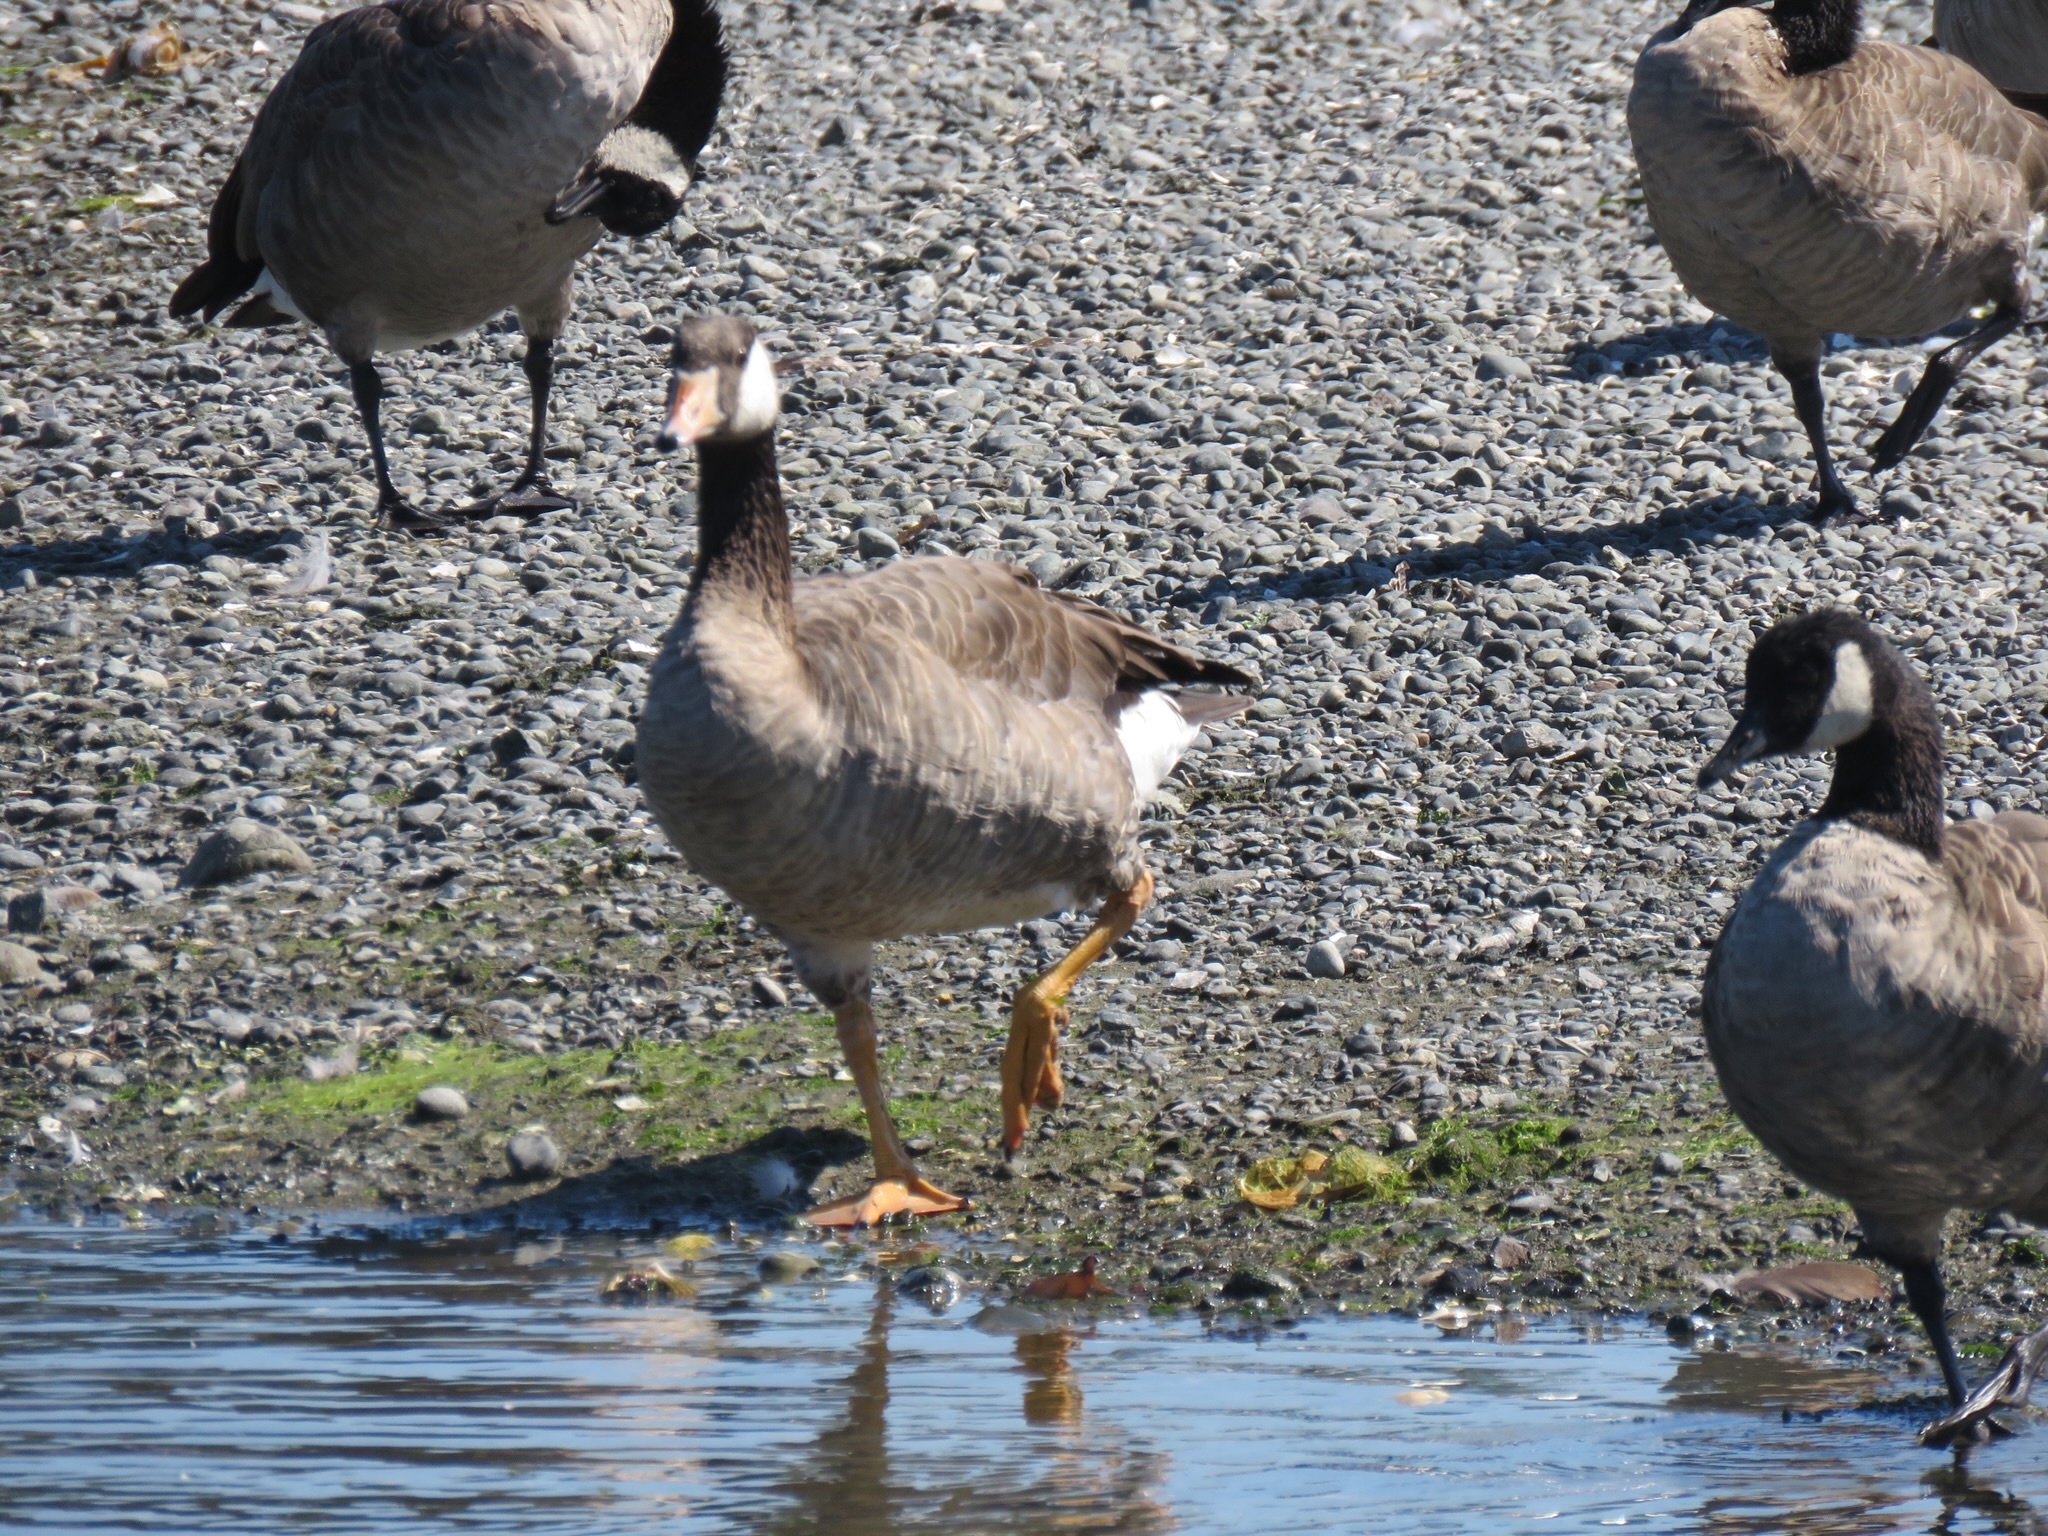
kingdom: Animalia
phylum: Chordata
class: Aves
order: Anseriformes
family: Anatidae
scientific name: Anatidae
